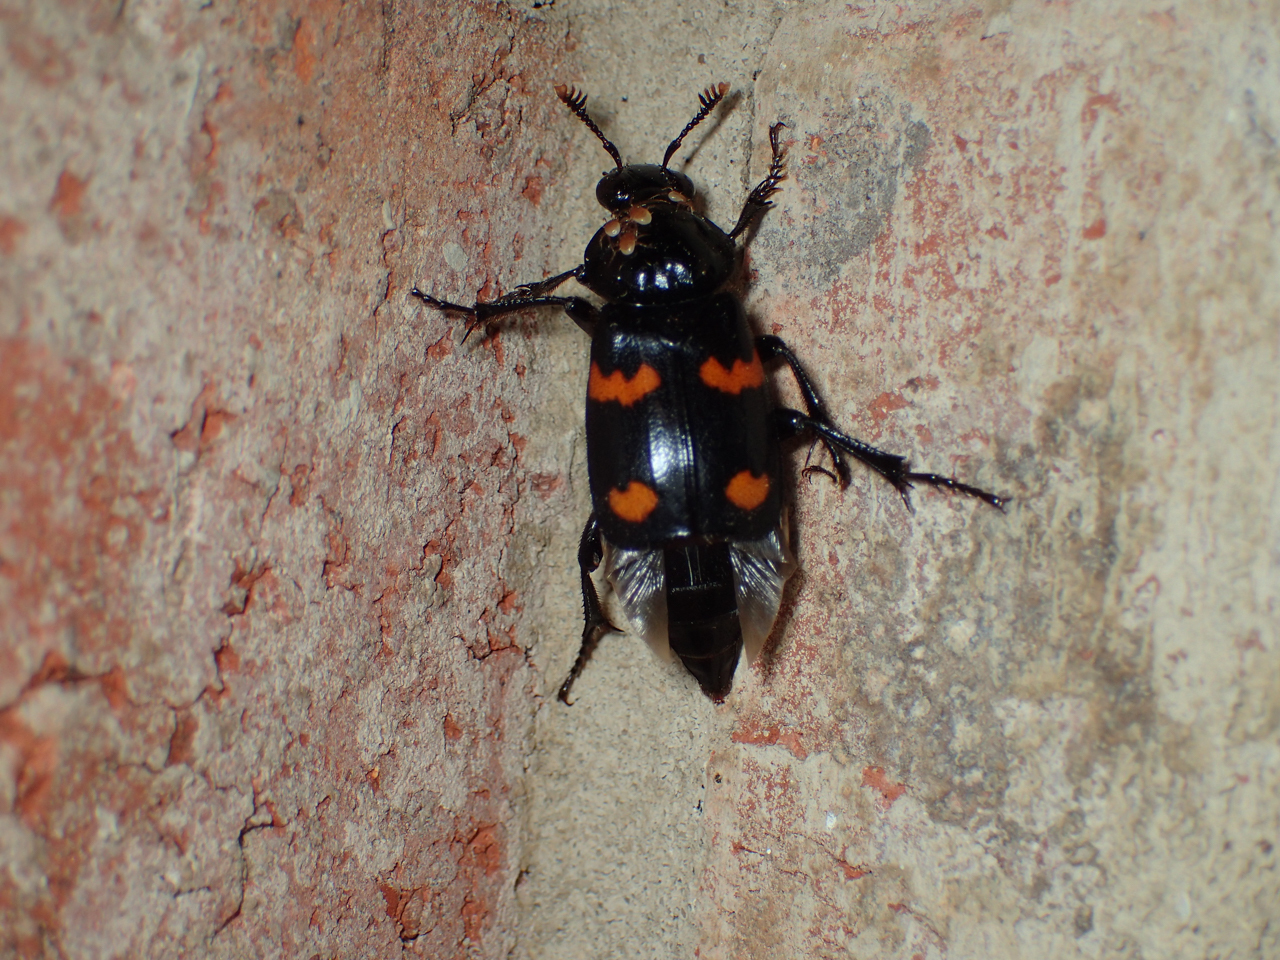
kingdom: Animalia
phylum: Arthropoda
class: Insecta
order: Coleoptera
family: Staphylinidae
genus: Nicrophorus
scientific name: Nicrophorus orbicollis
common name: Roundneck sexton beetle
